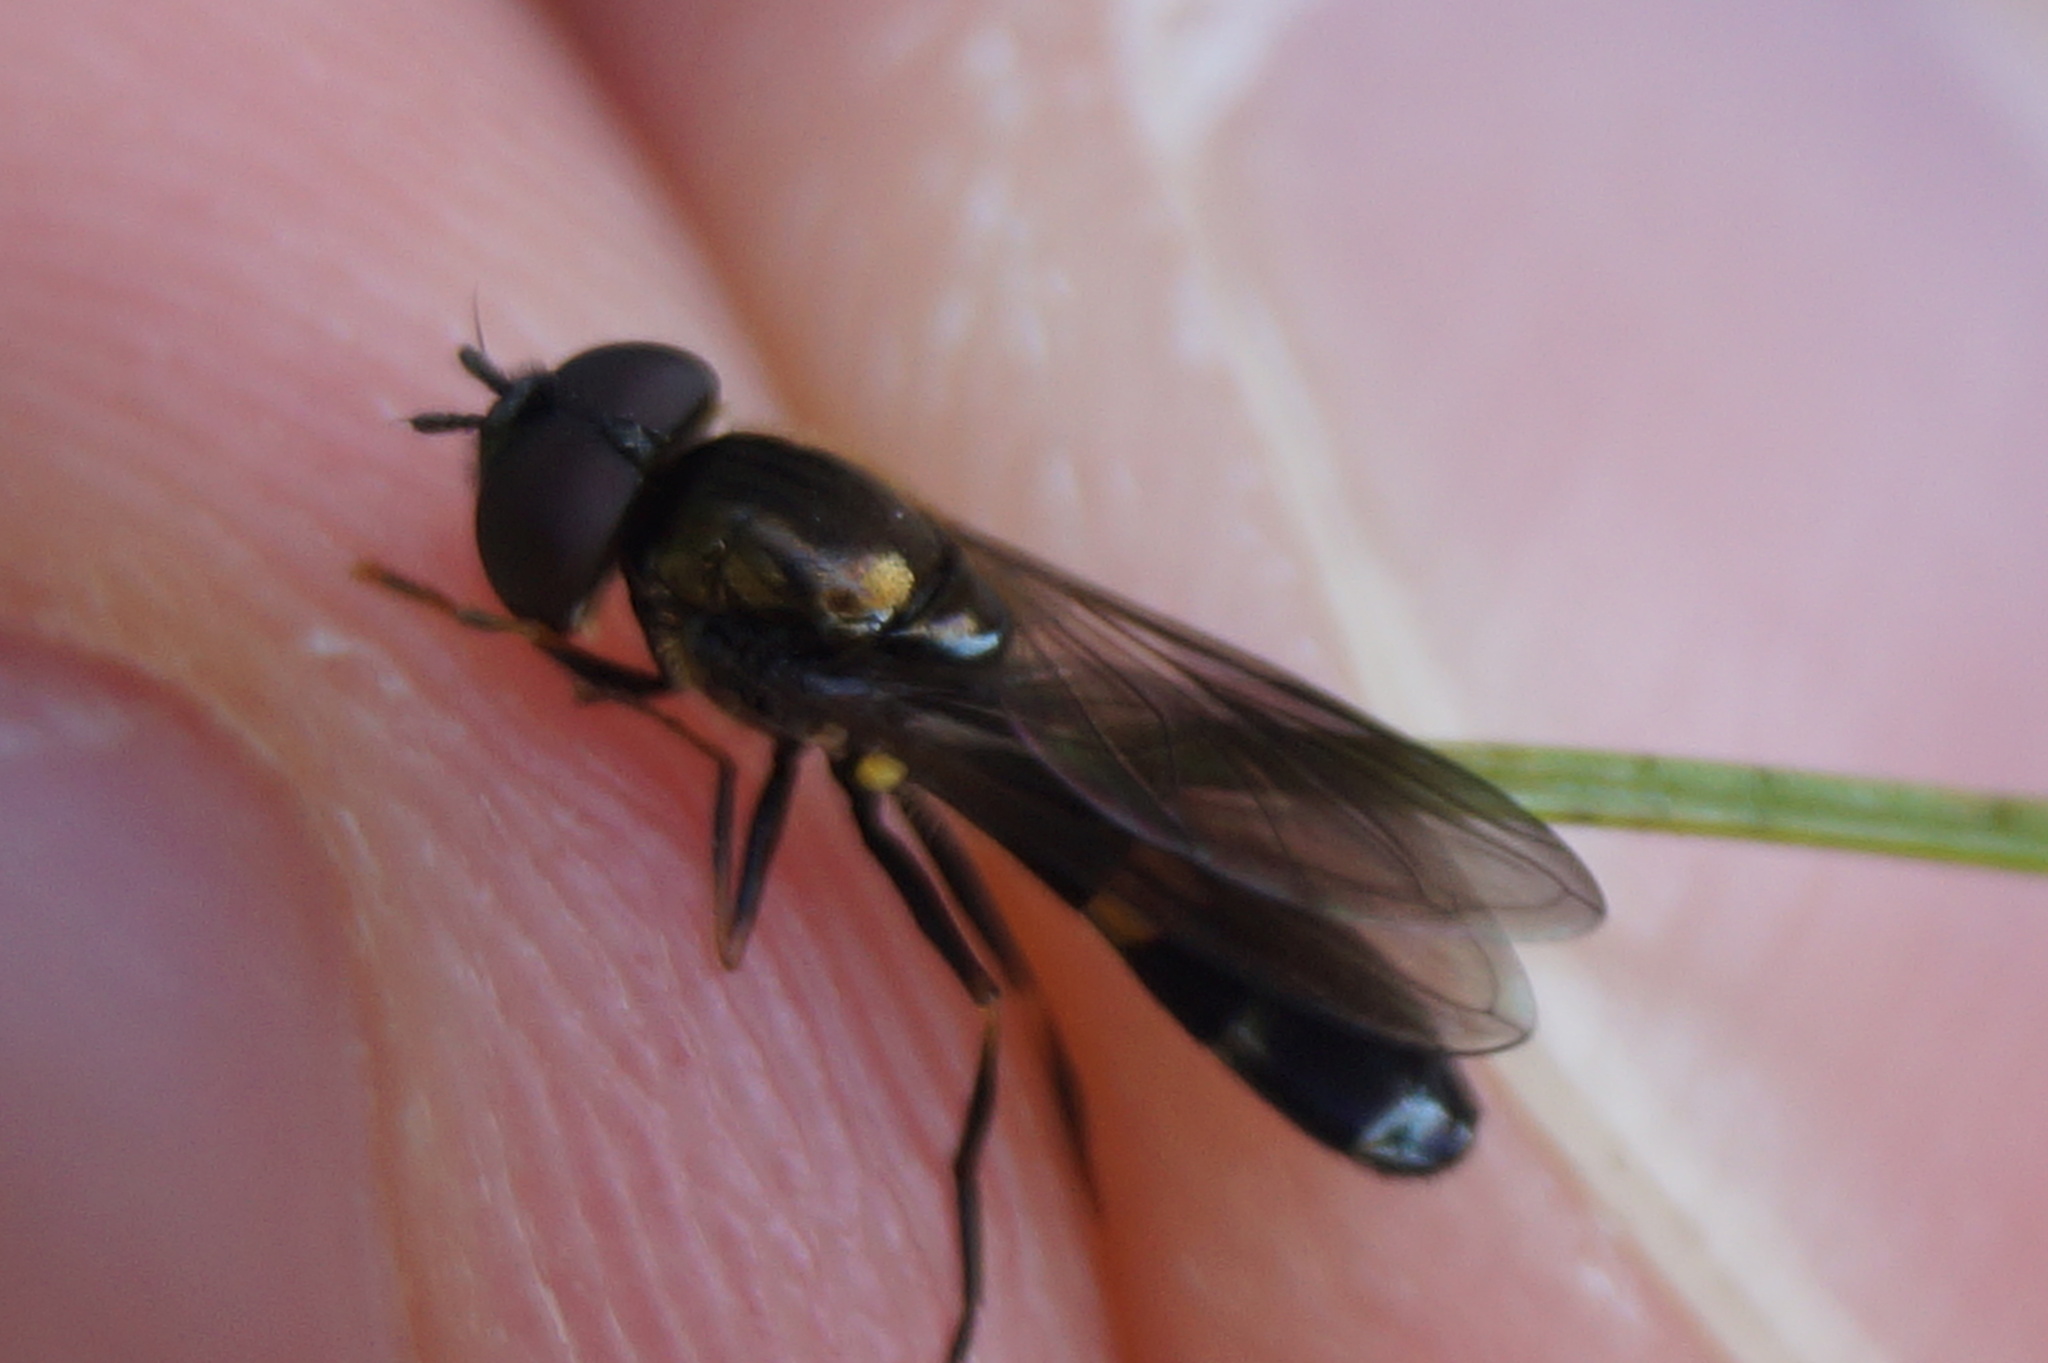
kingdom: Animalia
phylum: Arthropoda
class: Insecta
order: Diptera
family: Syrphidae
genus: Pyrophaena
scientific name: Pyrophaena rosarum
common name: Fourspot sedgesitter
